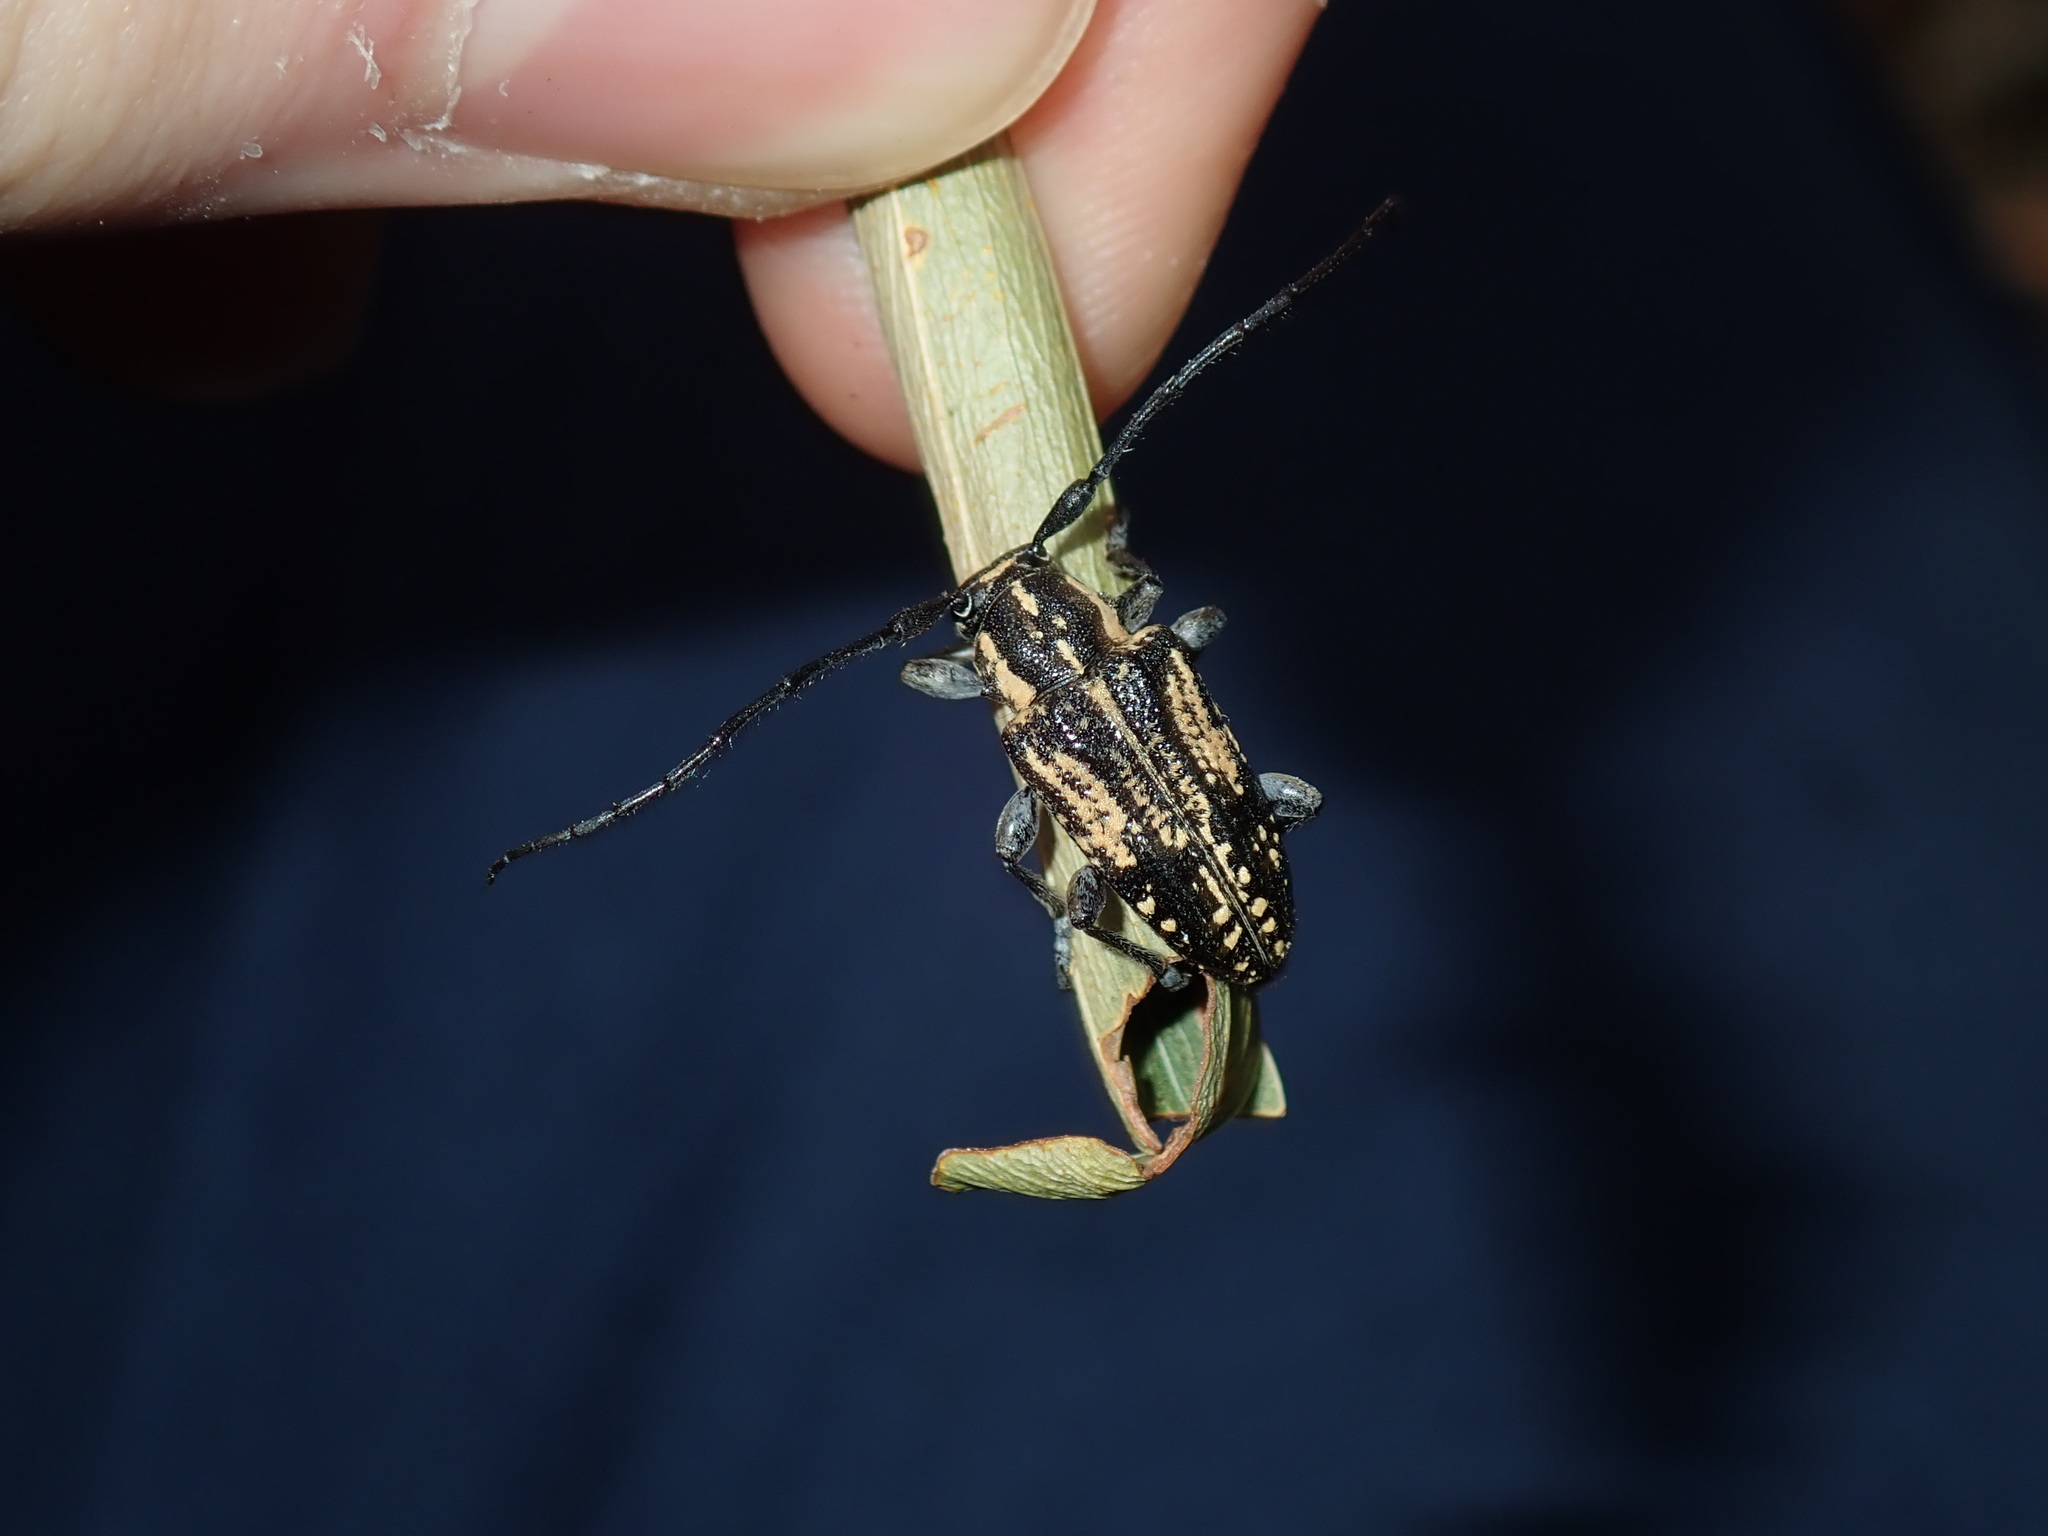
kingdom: Animalia
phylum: Arthropoda
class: Insecta
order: Coleoptera
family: Cerambycidae
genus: Hebecerus
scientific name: Hebecerus crocogaster
